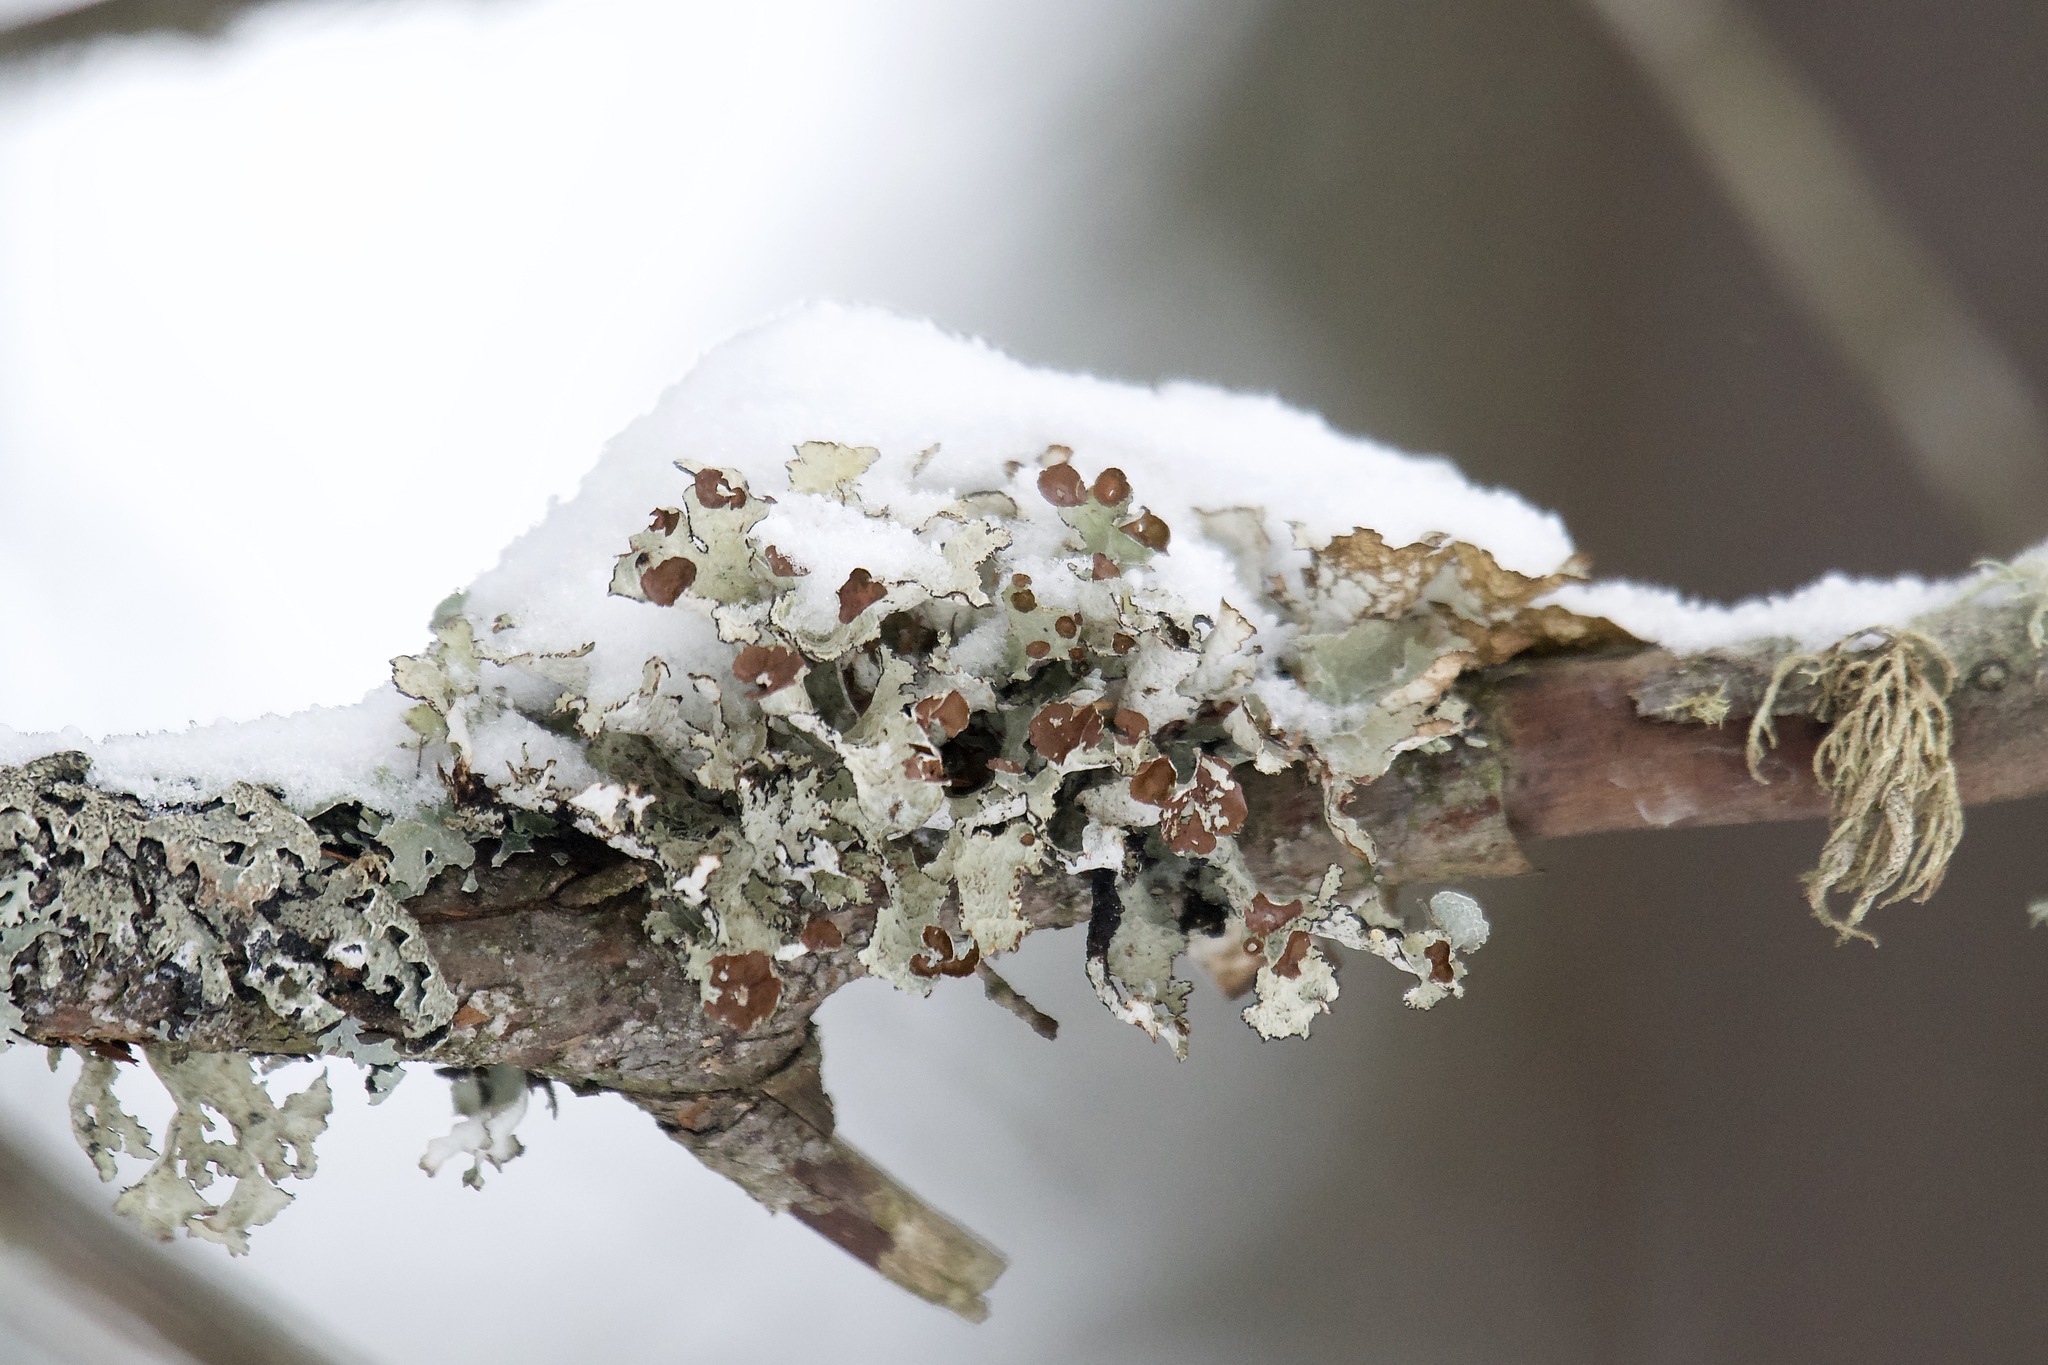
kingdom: Fungi
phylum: Ascomycota
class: Lecanoromycetes
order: Lecanorales
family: Parmeliaceae
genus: Platismatia
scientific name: Platismatia tuckermanii
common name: Crumpled rag lichen
